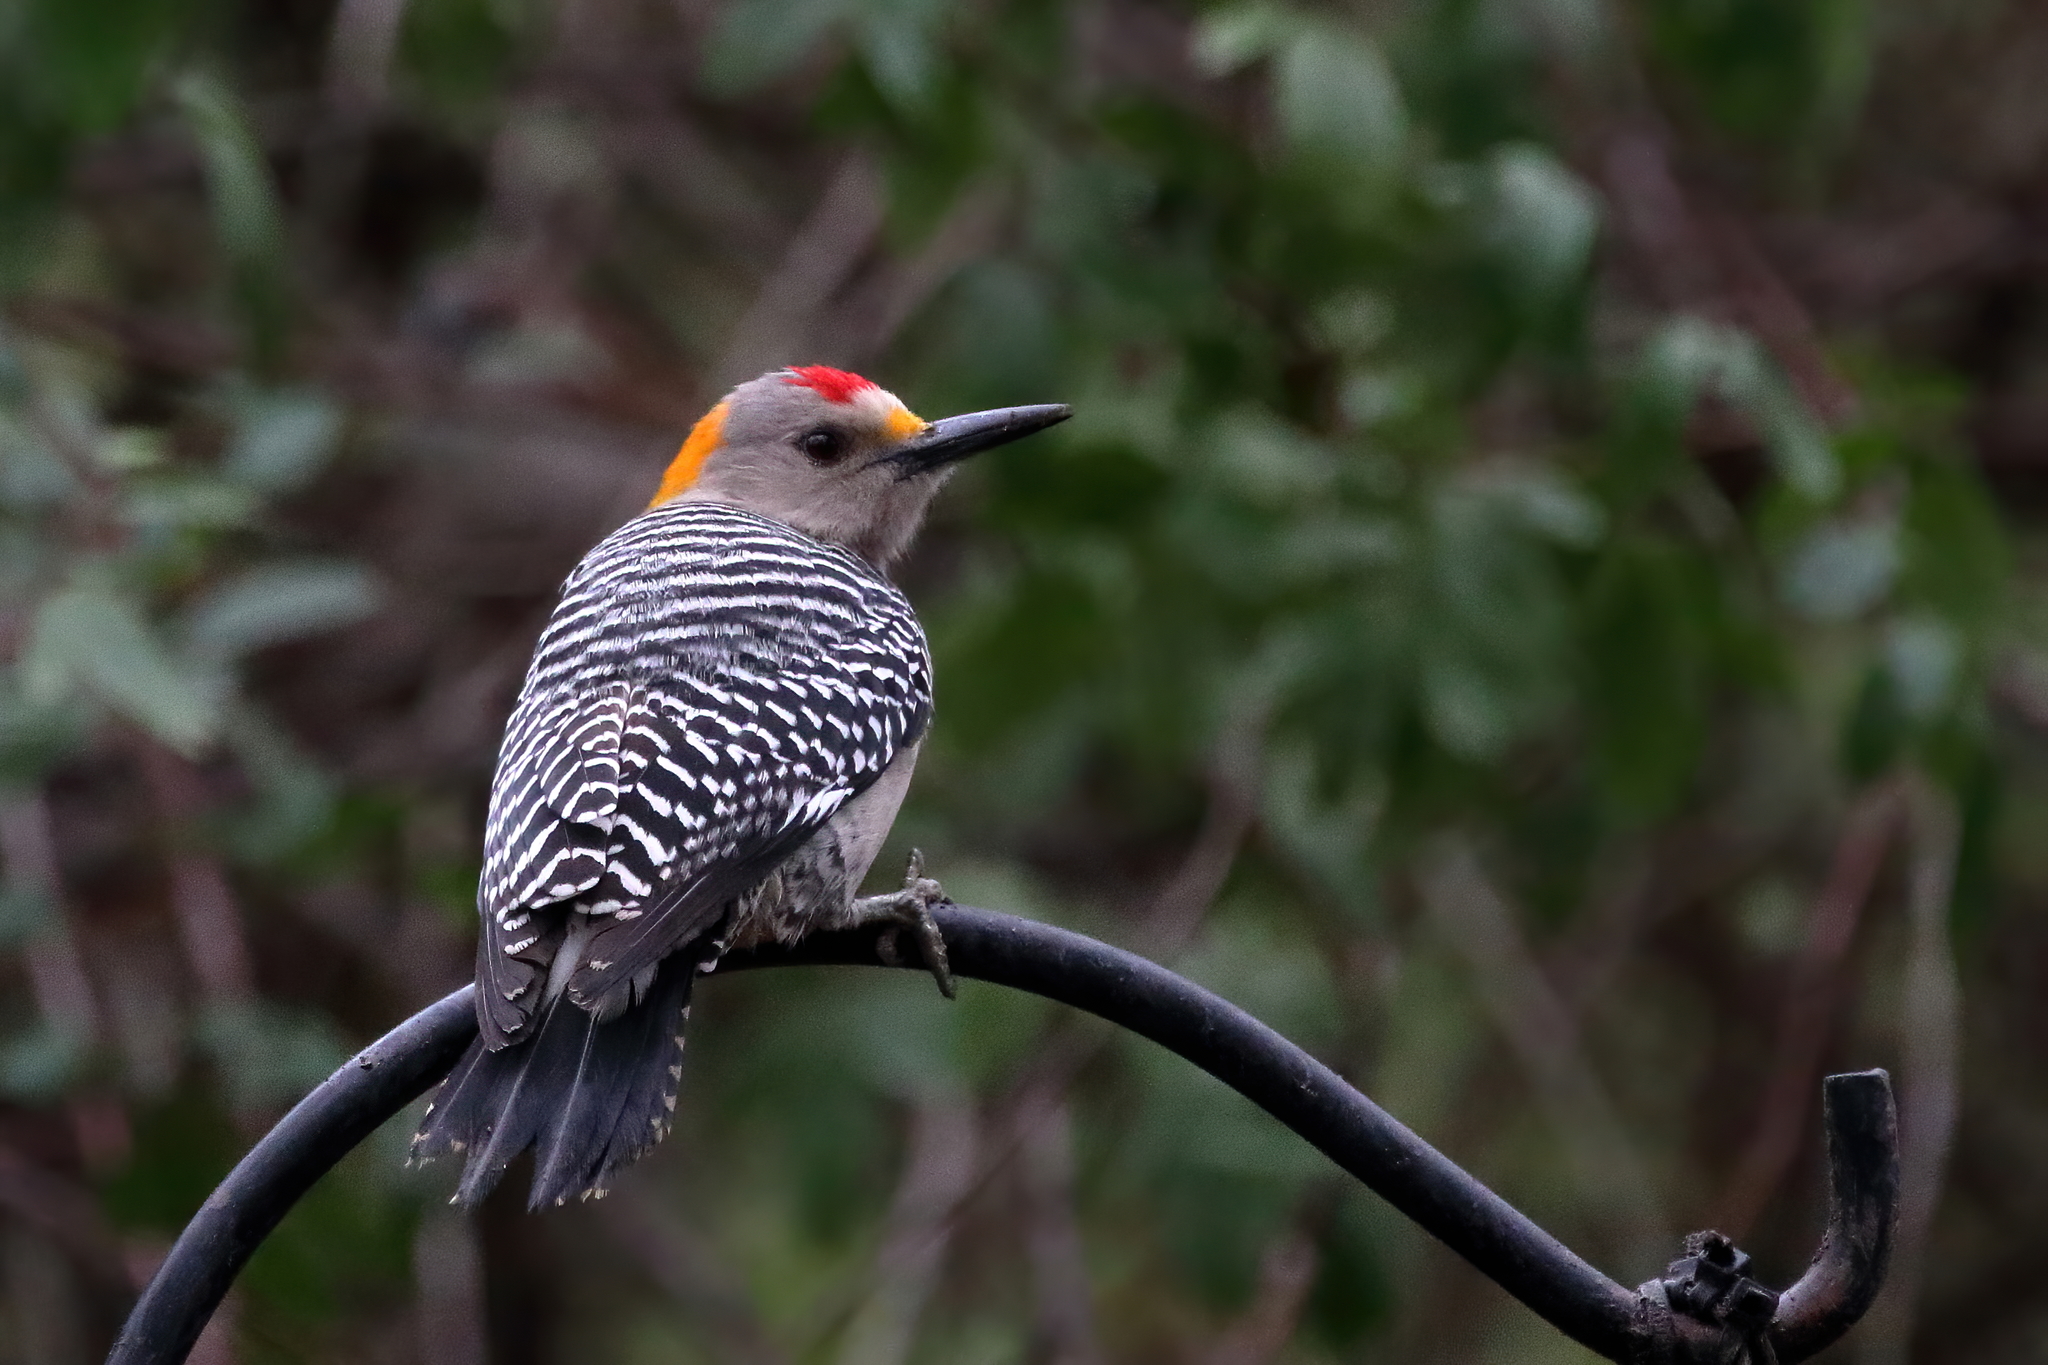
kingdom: Animalia
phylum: Chordata
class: Aves
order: Piciformes
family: Picidae
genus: Melanerpes
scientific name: Melanerpes aurifrons
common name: Golden-fronted woodpecker
